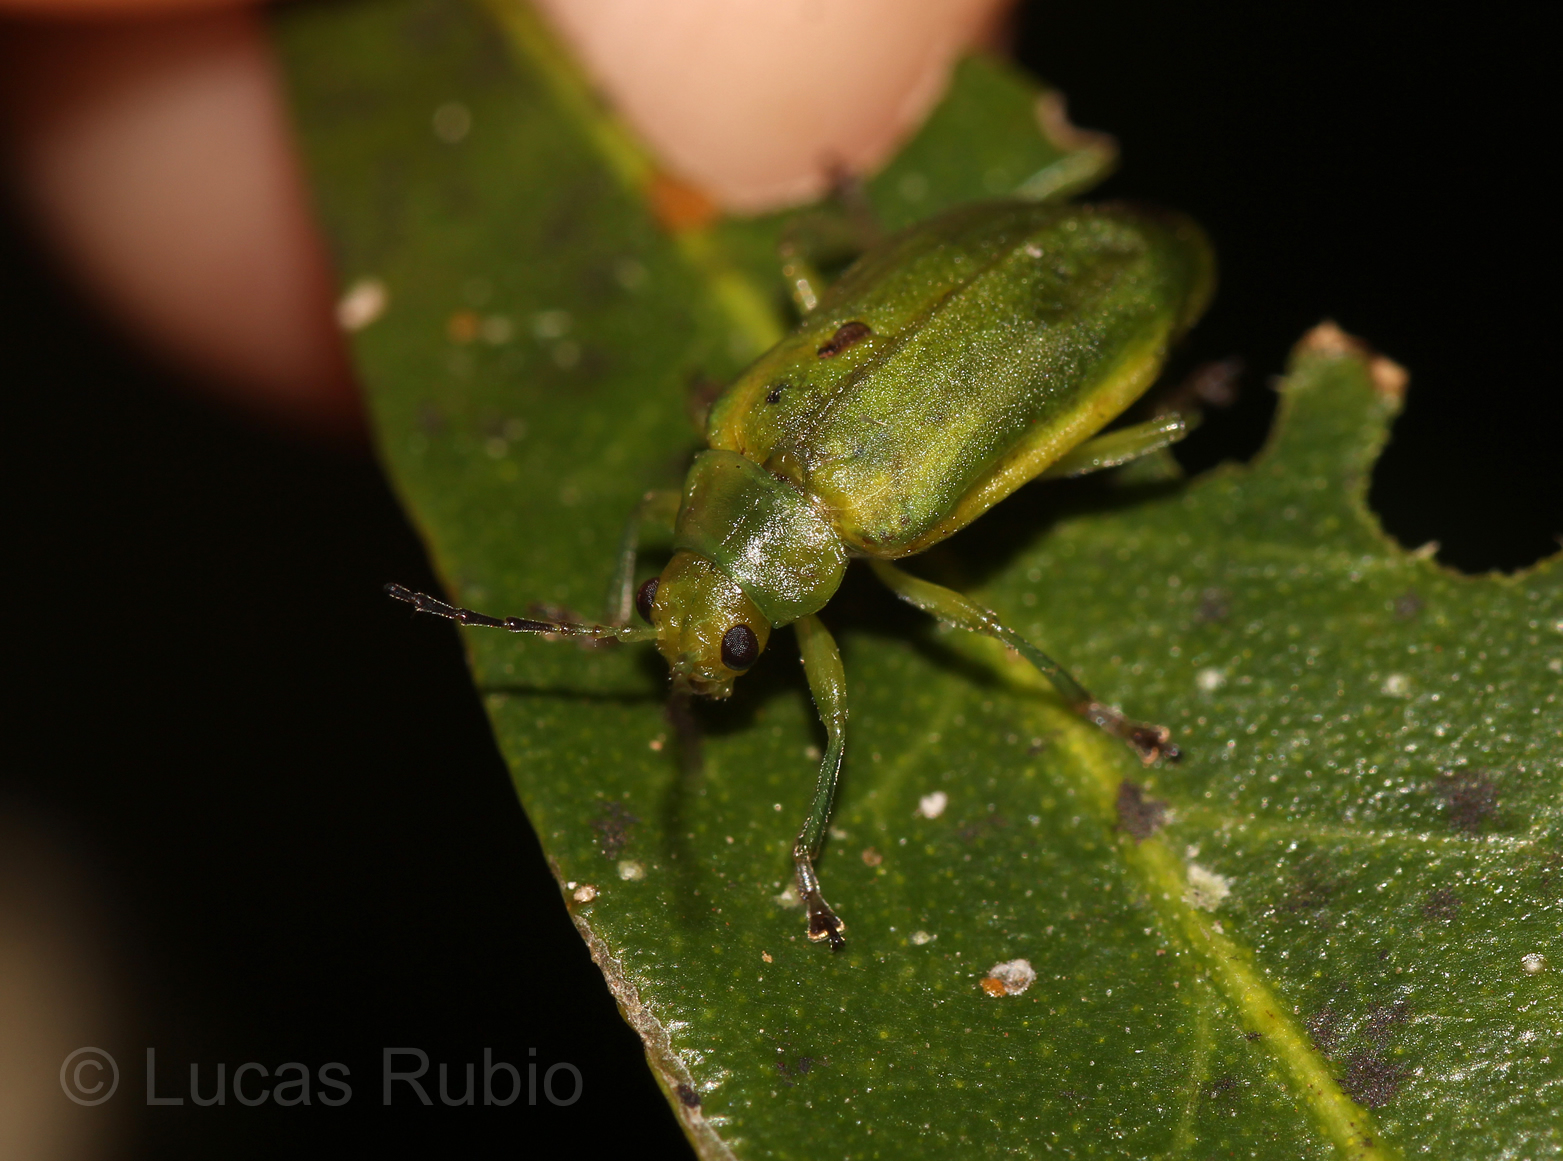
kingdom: Animalia
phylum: Arthropoda
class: Insecta
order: Coleoptera
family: Chrysomelidae
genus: Neolochmaea
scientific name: Neolochmaea
